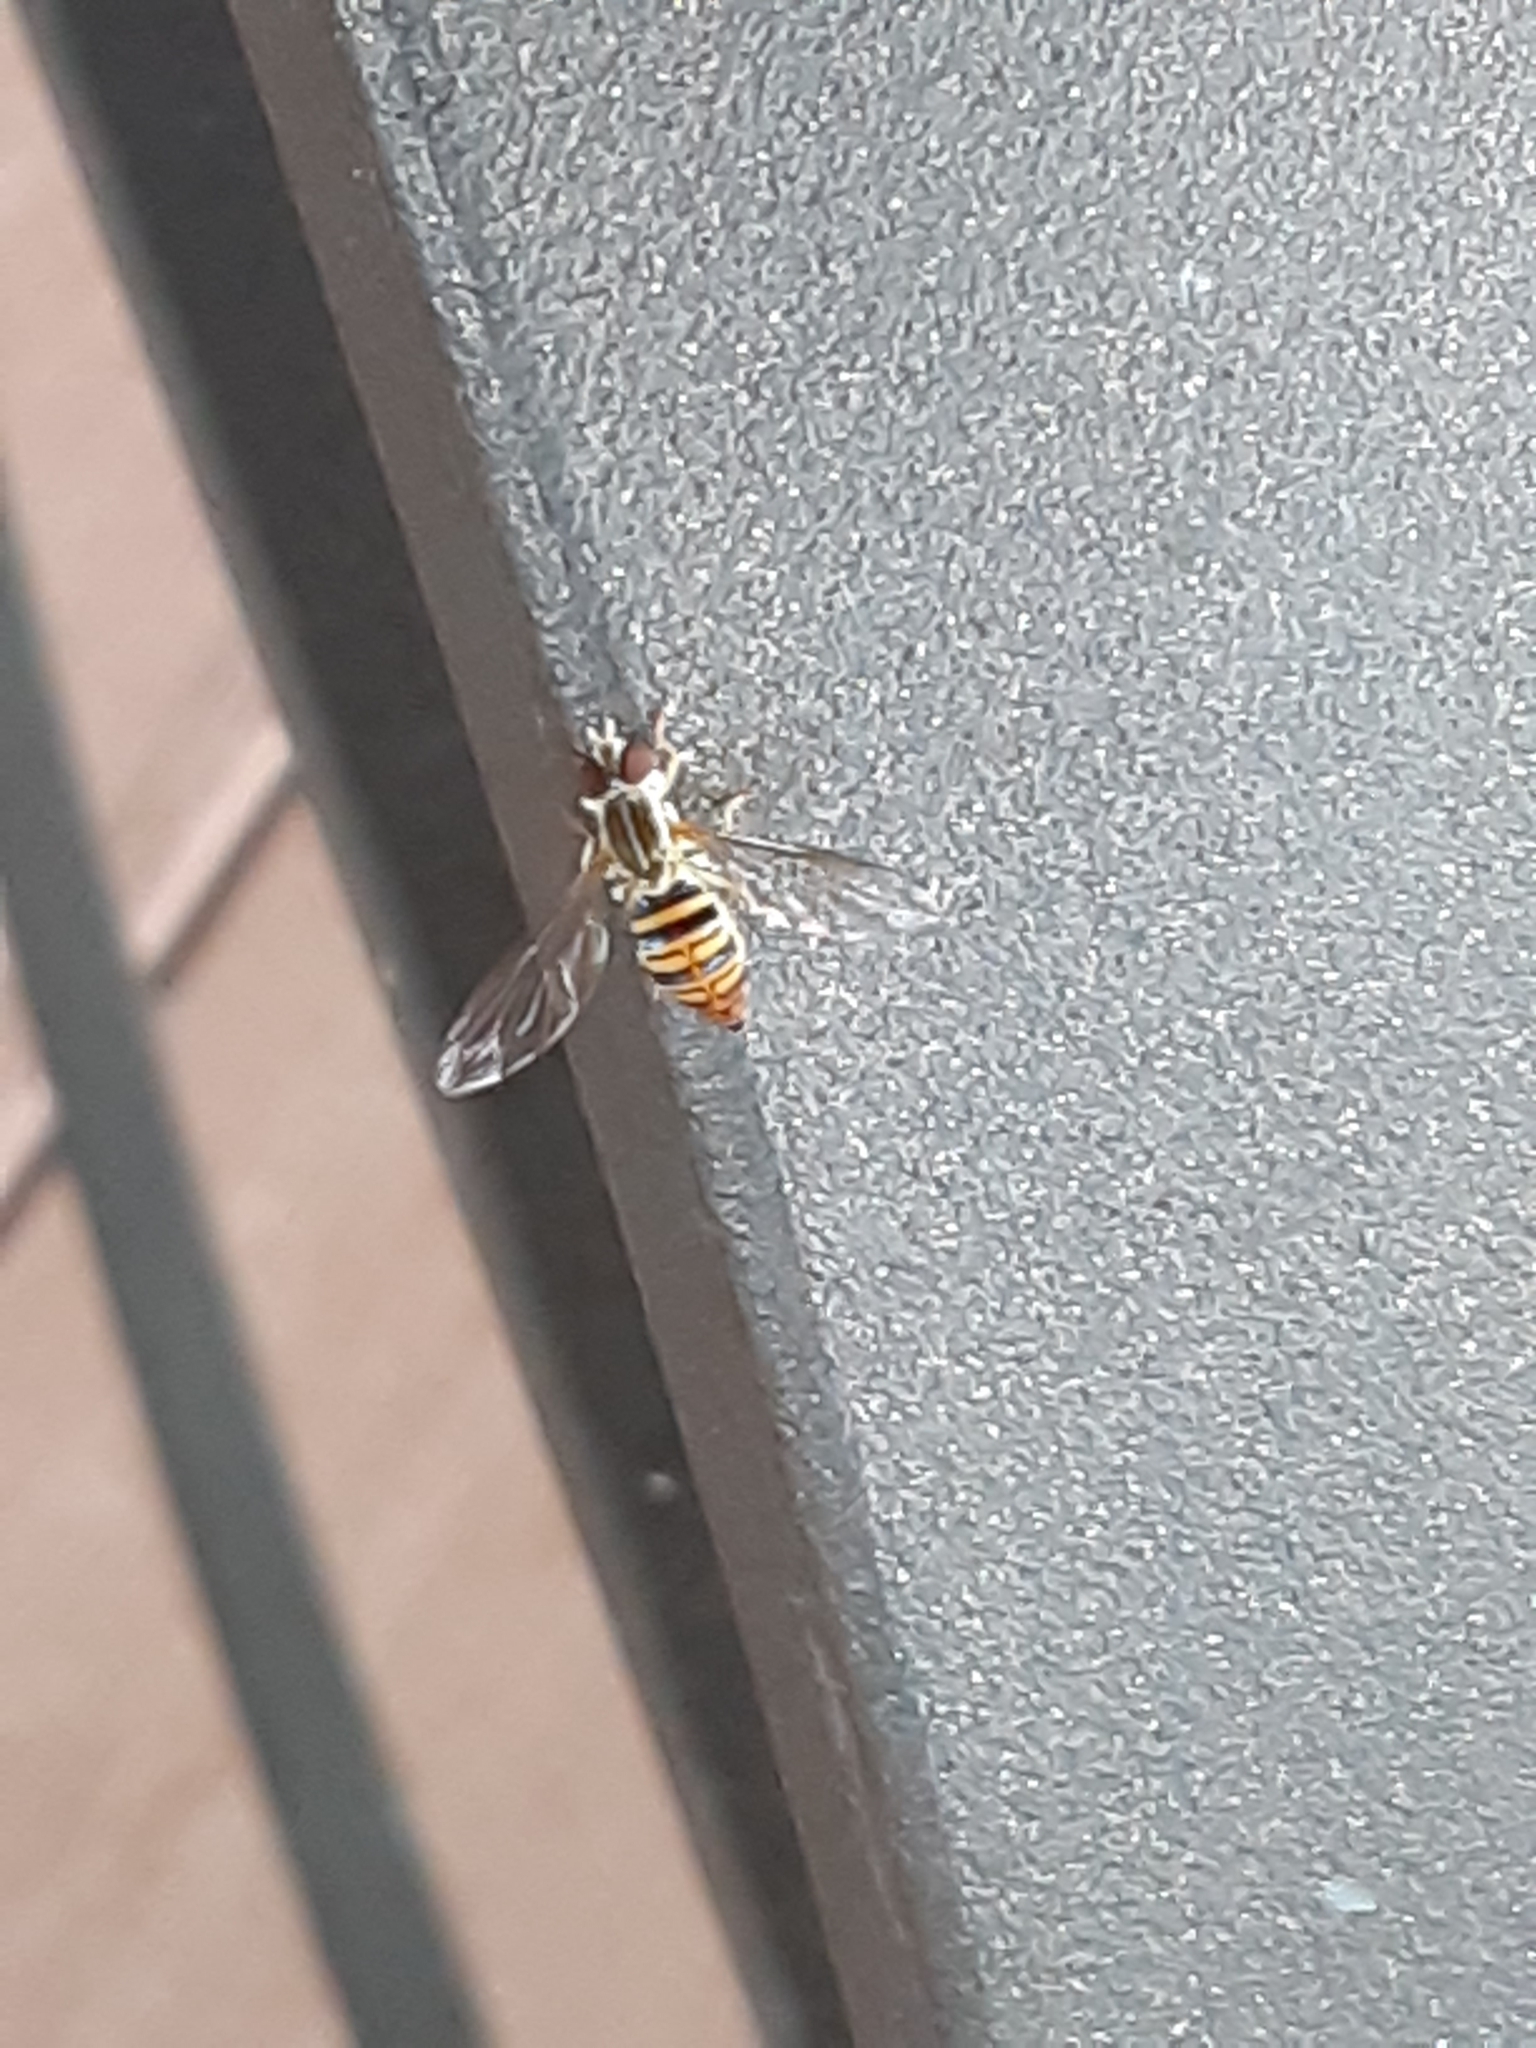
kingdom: Animalia
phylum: Arthropoda
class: Insecta
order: Diptera
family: Syrphidae
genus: Toxomerus
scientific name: Toxomerus politus
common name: Maize calligrapher
